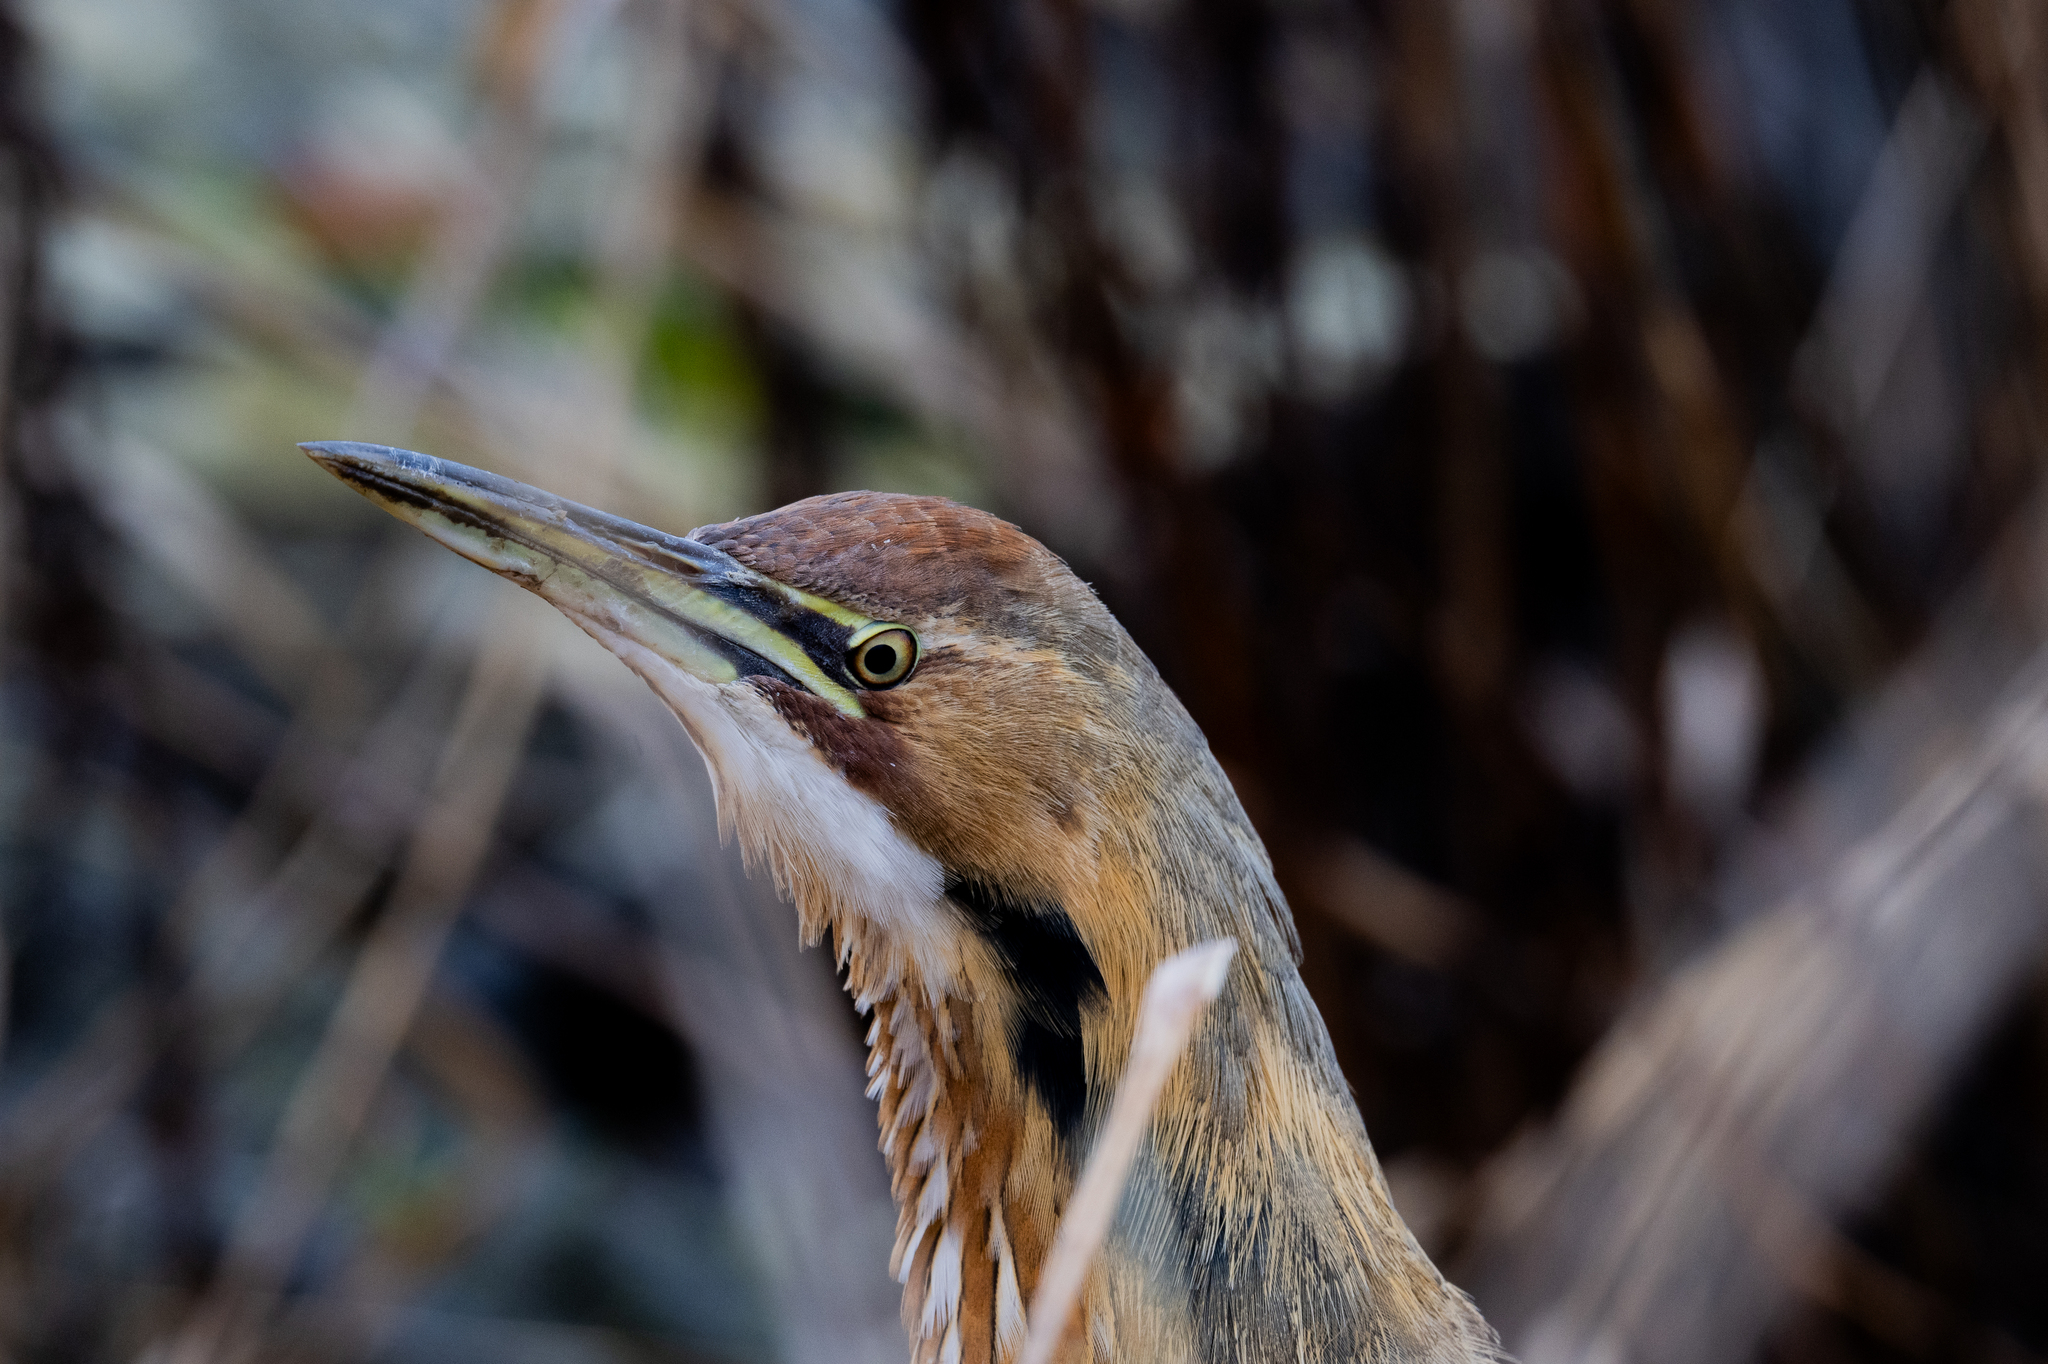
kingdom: Animalia
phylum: Chordata
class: Aves
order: Pelecaniformes
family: Ardeidae
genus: Botaurus
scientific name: Botaurus lentiginosus
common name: American bittern
